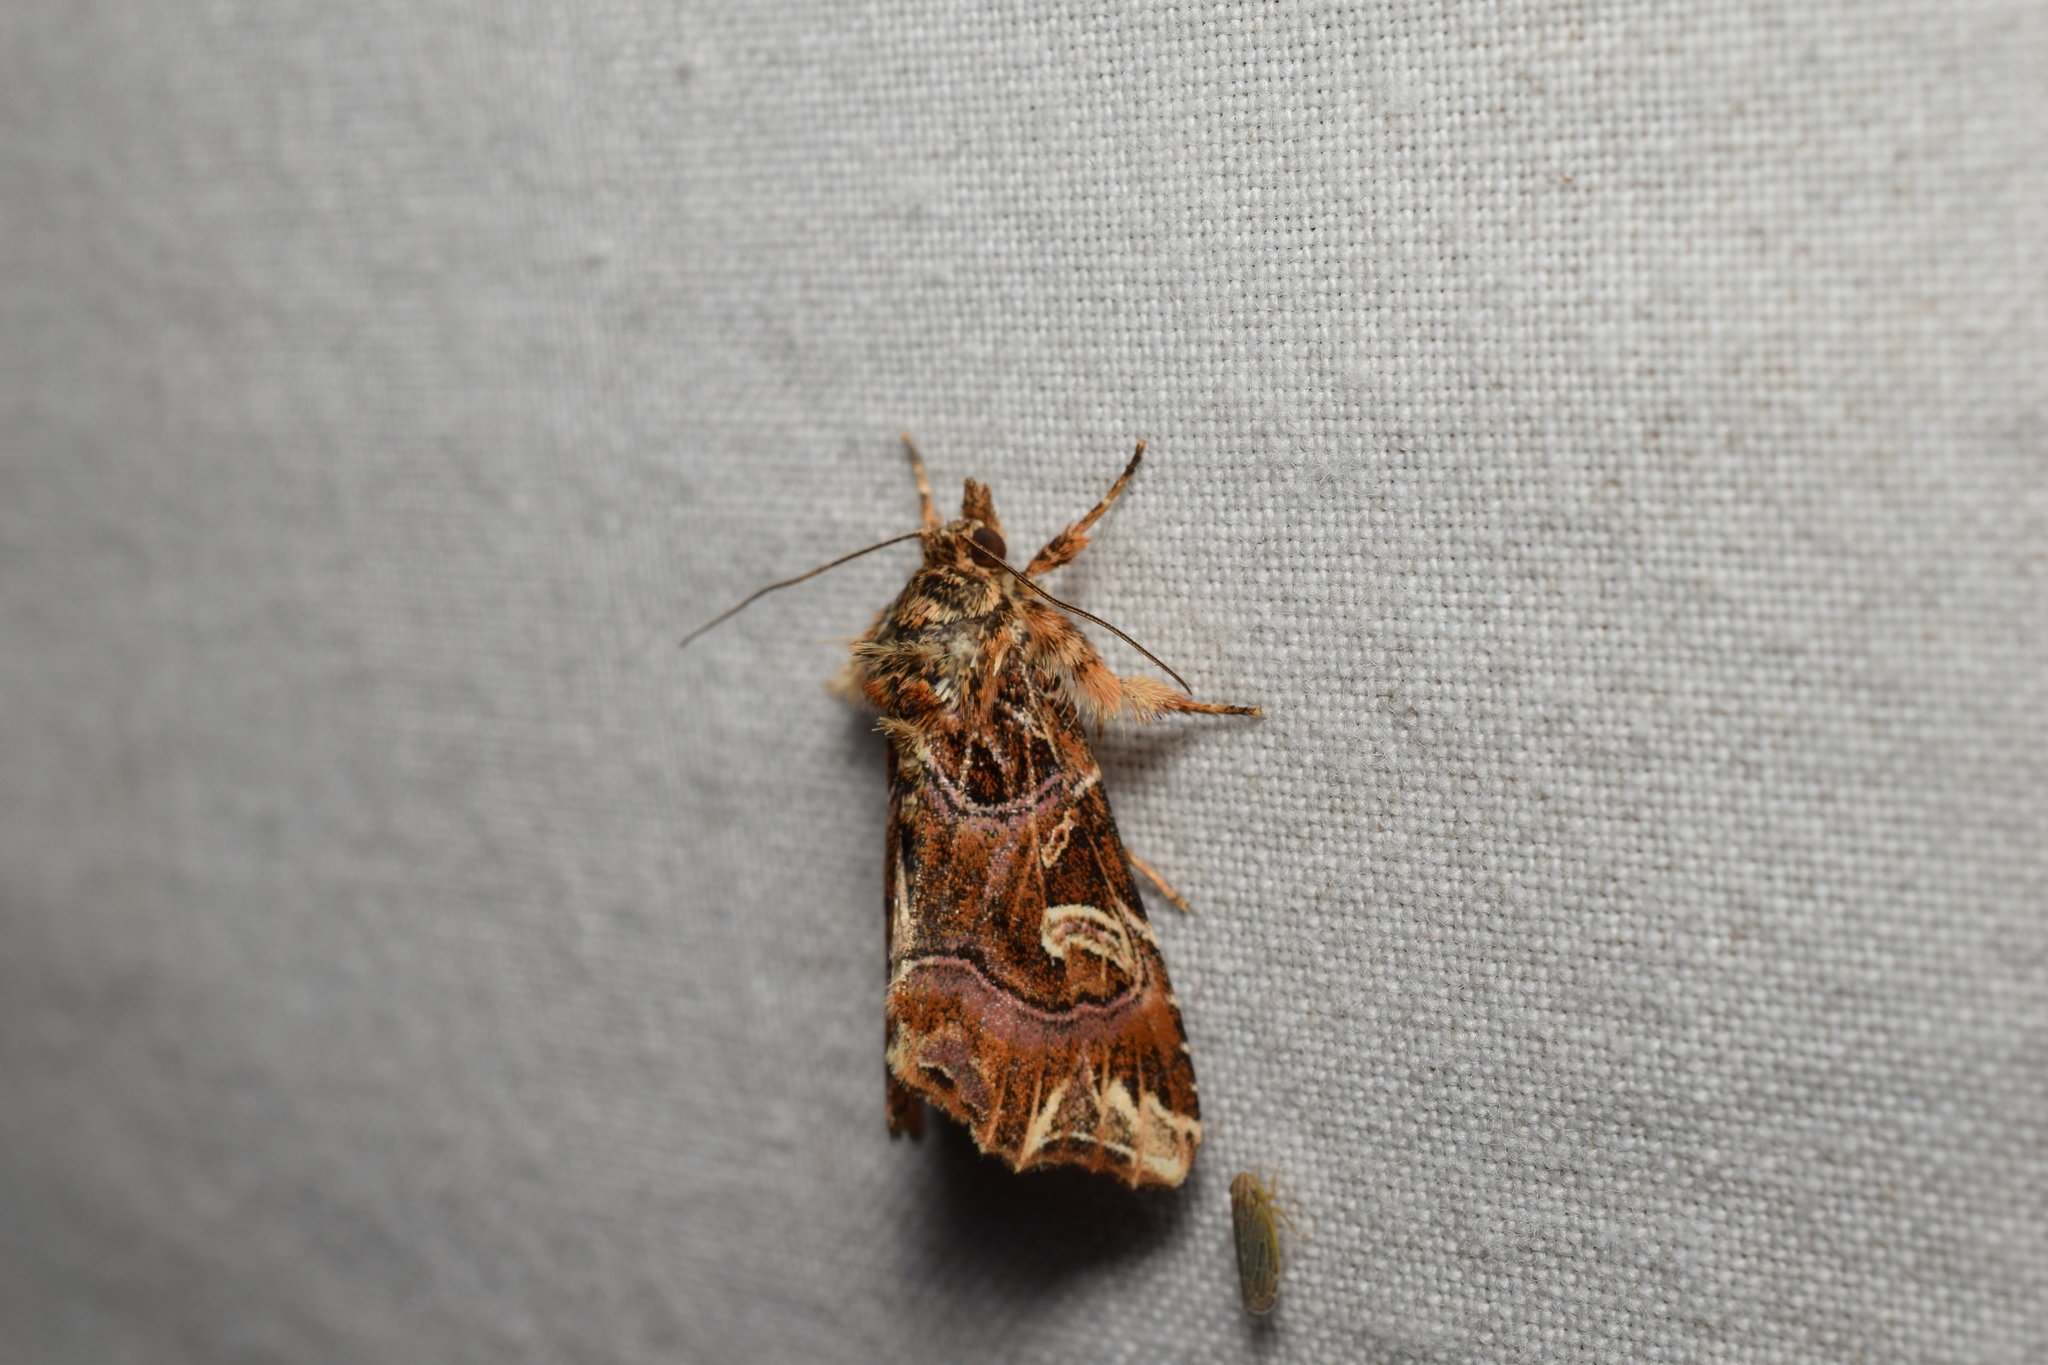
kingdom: Animalia
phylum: Arthropoda
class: Insecta
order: Lepidoptera
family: Noctuidae
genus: Callopistria
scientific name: Callopistria juventina
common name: Latin
